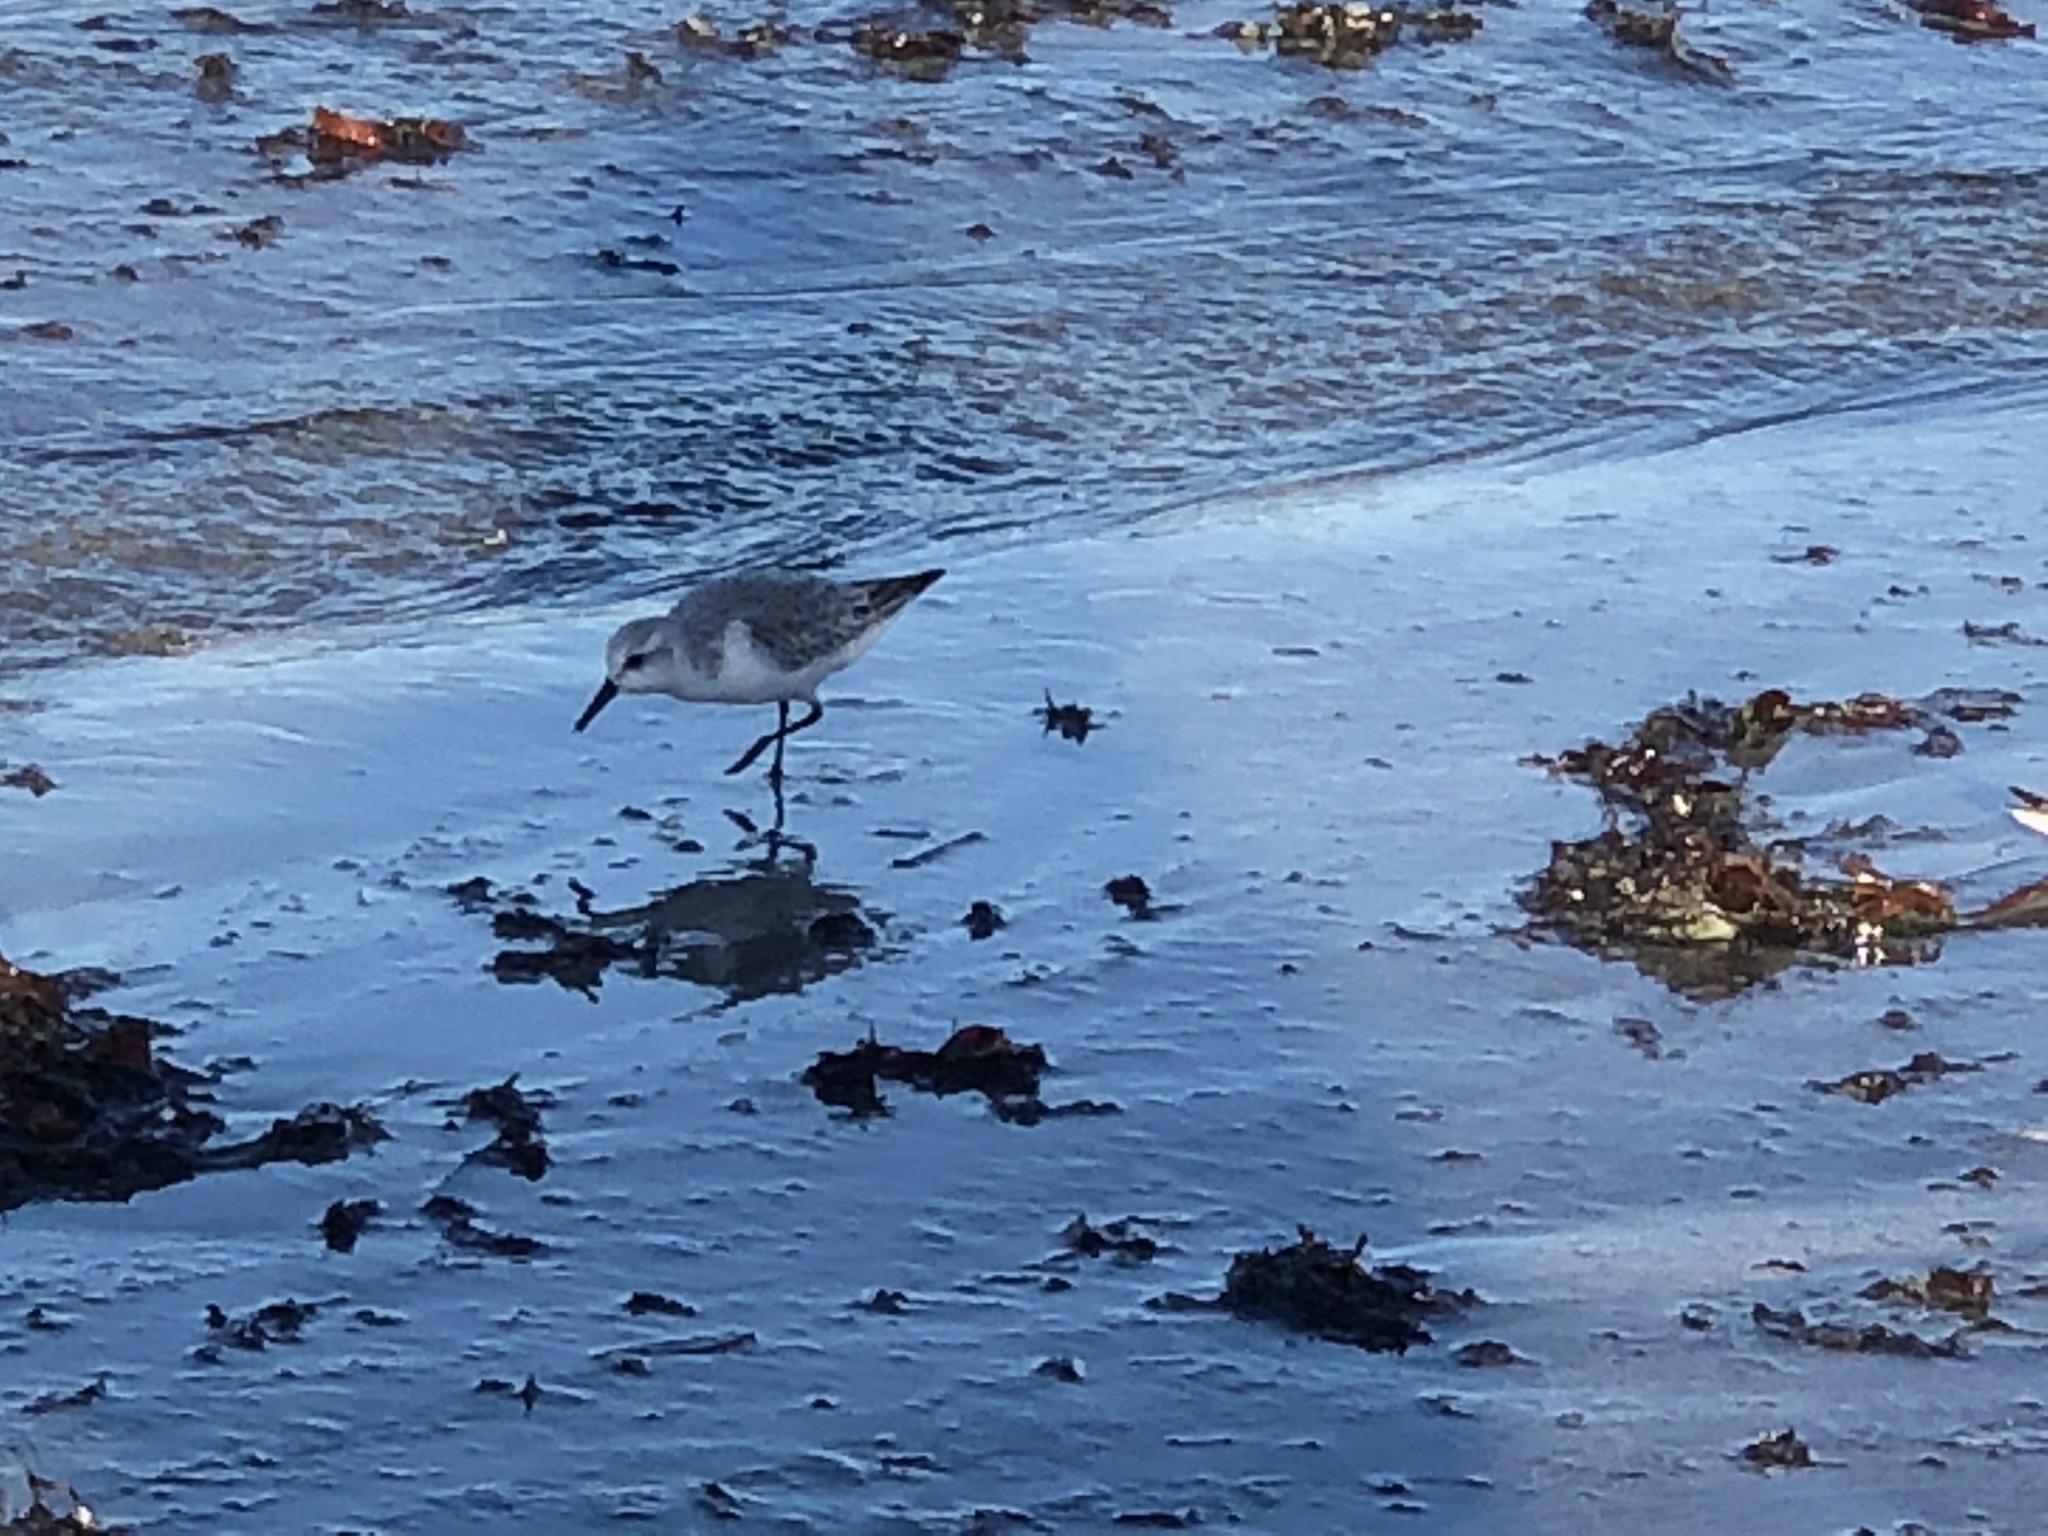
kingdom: Animalia
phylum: Chordata
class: Aves
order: Charadriiformes
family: Scolopacidae
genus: Calidris
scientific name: Calidris alba
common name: Sanderling
